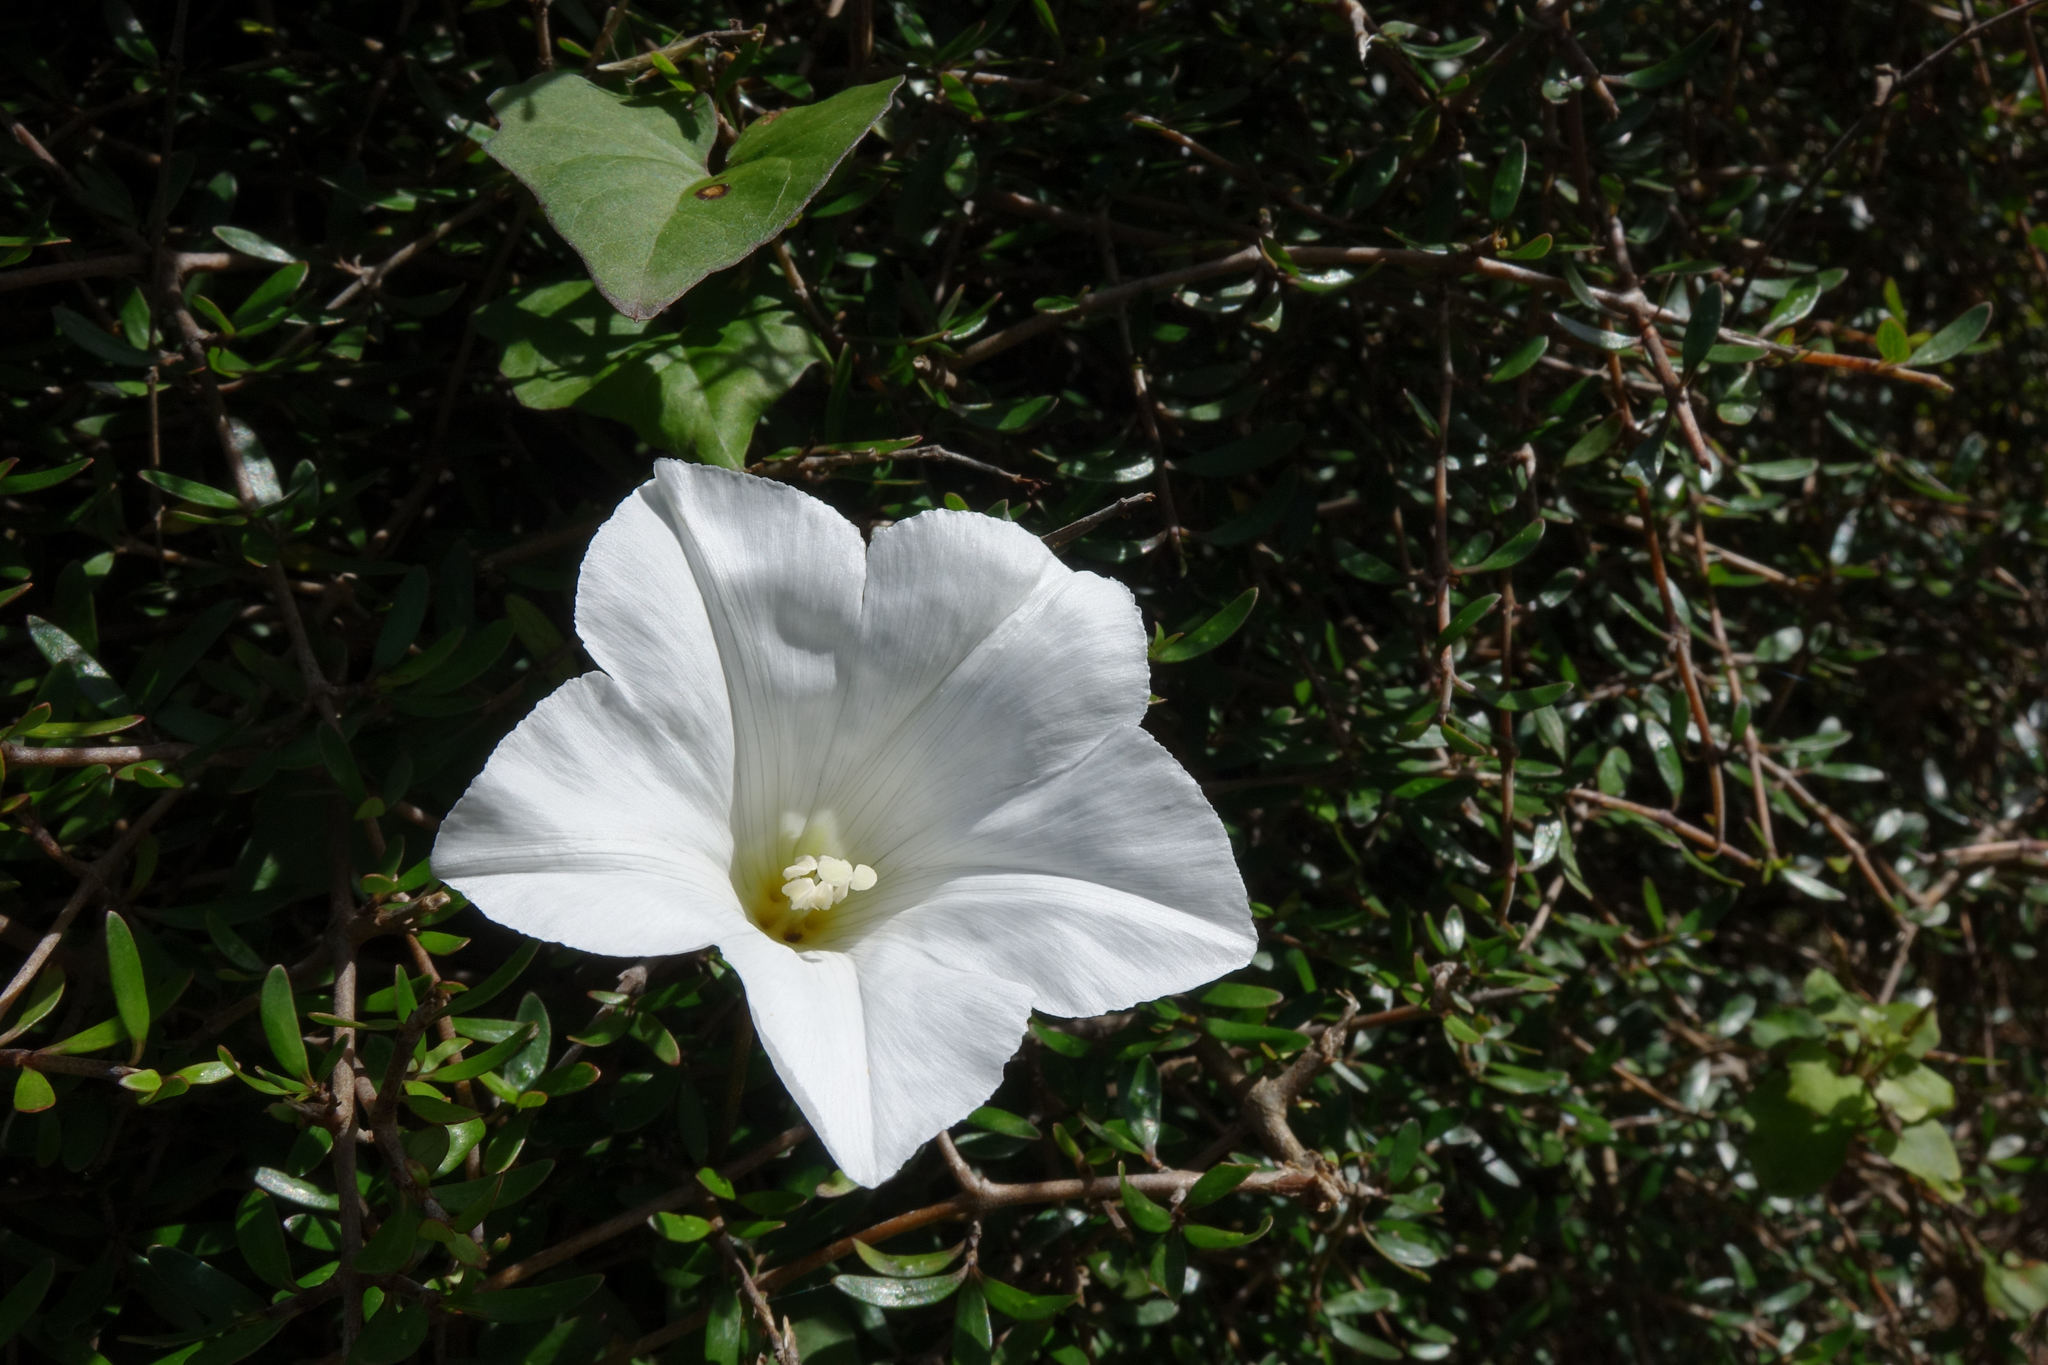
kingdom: Plantae
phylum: Tracheophyta
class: Magnoliopsida
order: Solanales
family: Convolvulaceae
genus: Calystegia
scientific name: Calystegia tuguriorum
